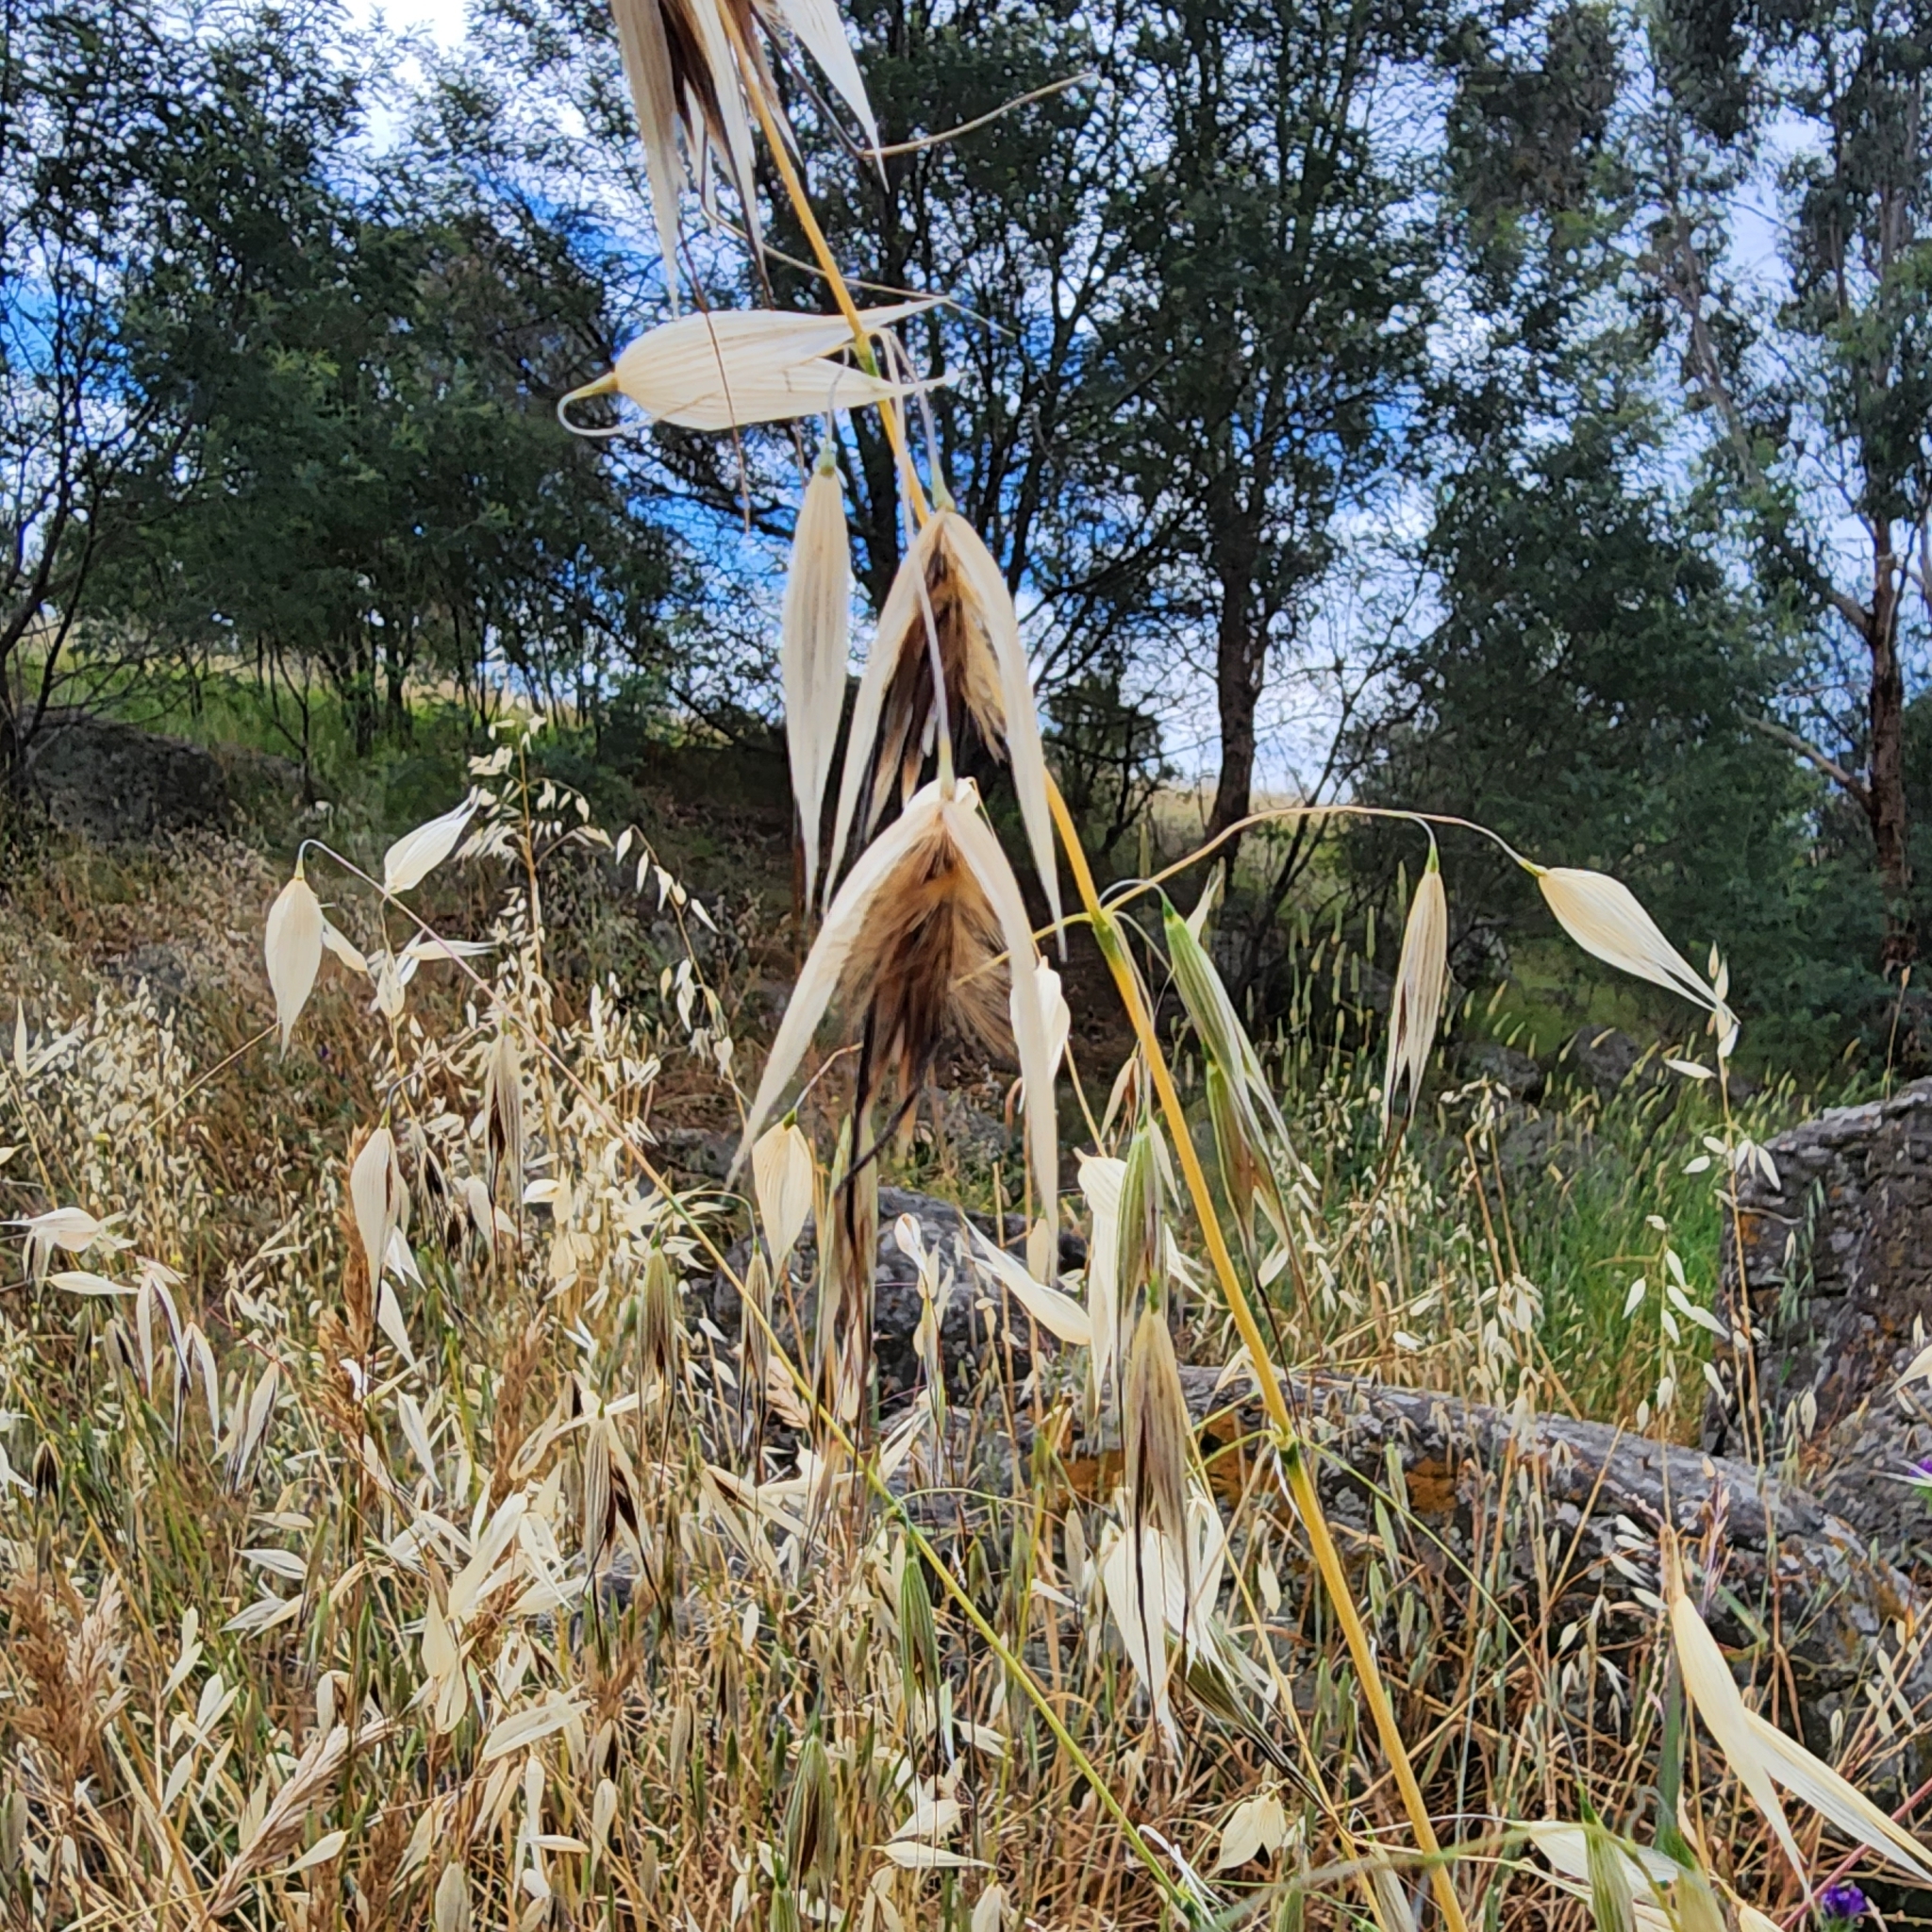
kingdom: Plantae
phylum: Tracheophyta
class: Liliopsida
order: Poales
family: Poaceae
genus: Avena
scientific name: Avena barbata
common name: Slender oat
